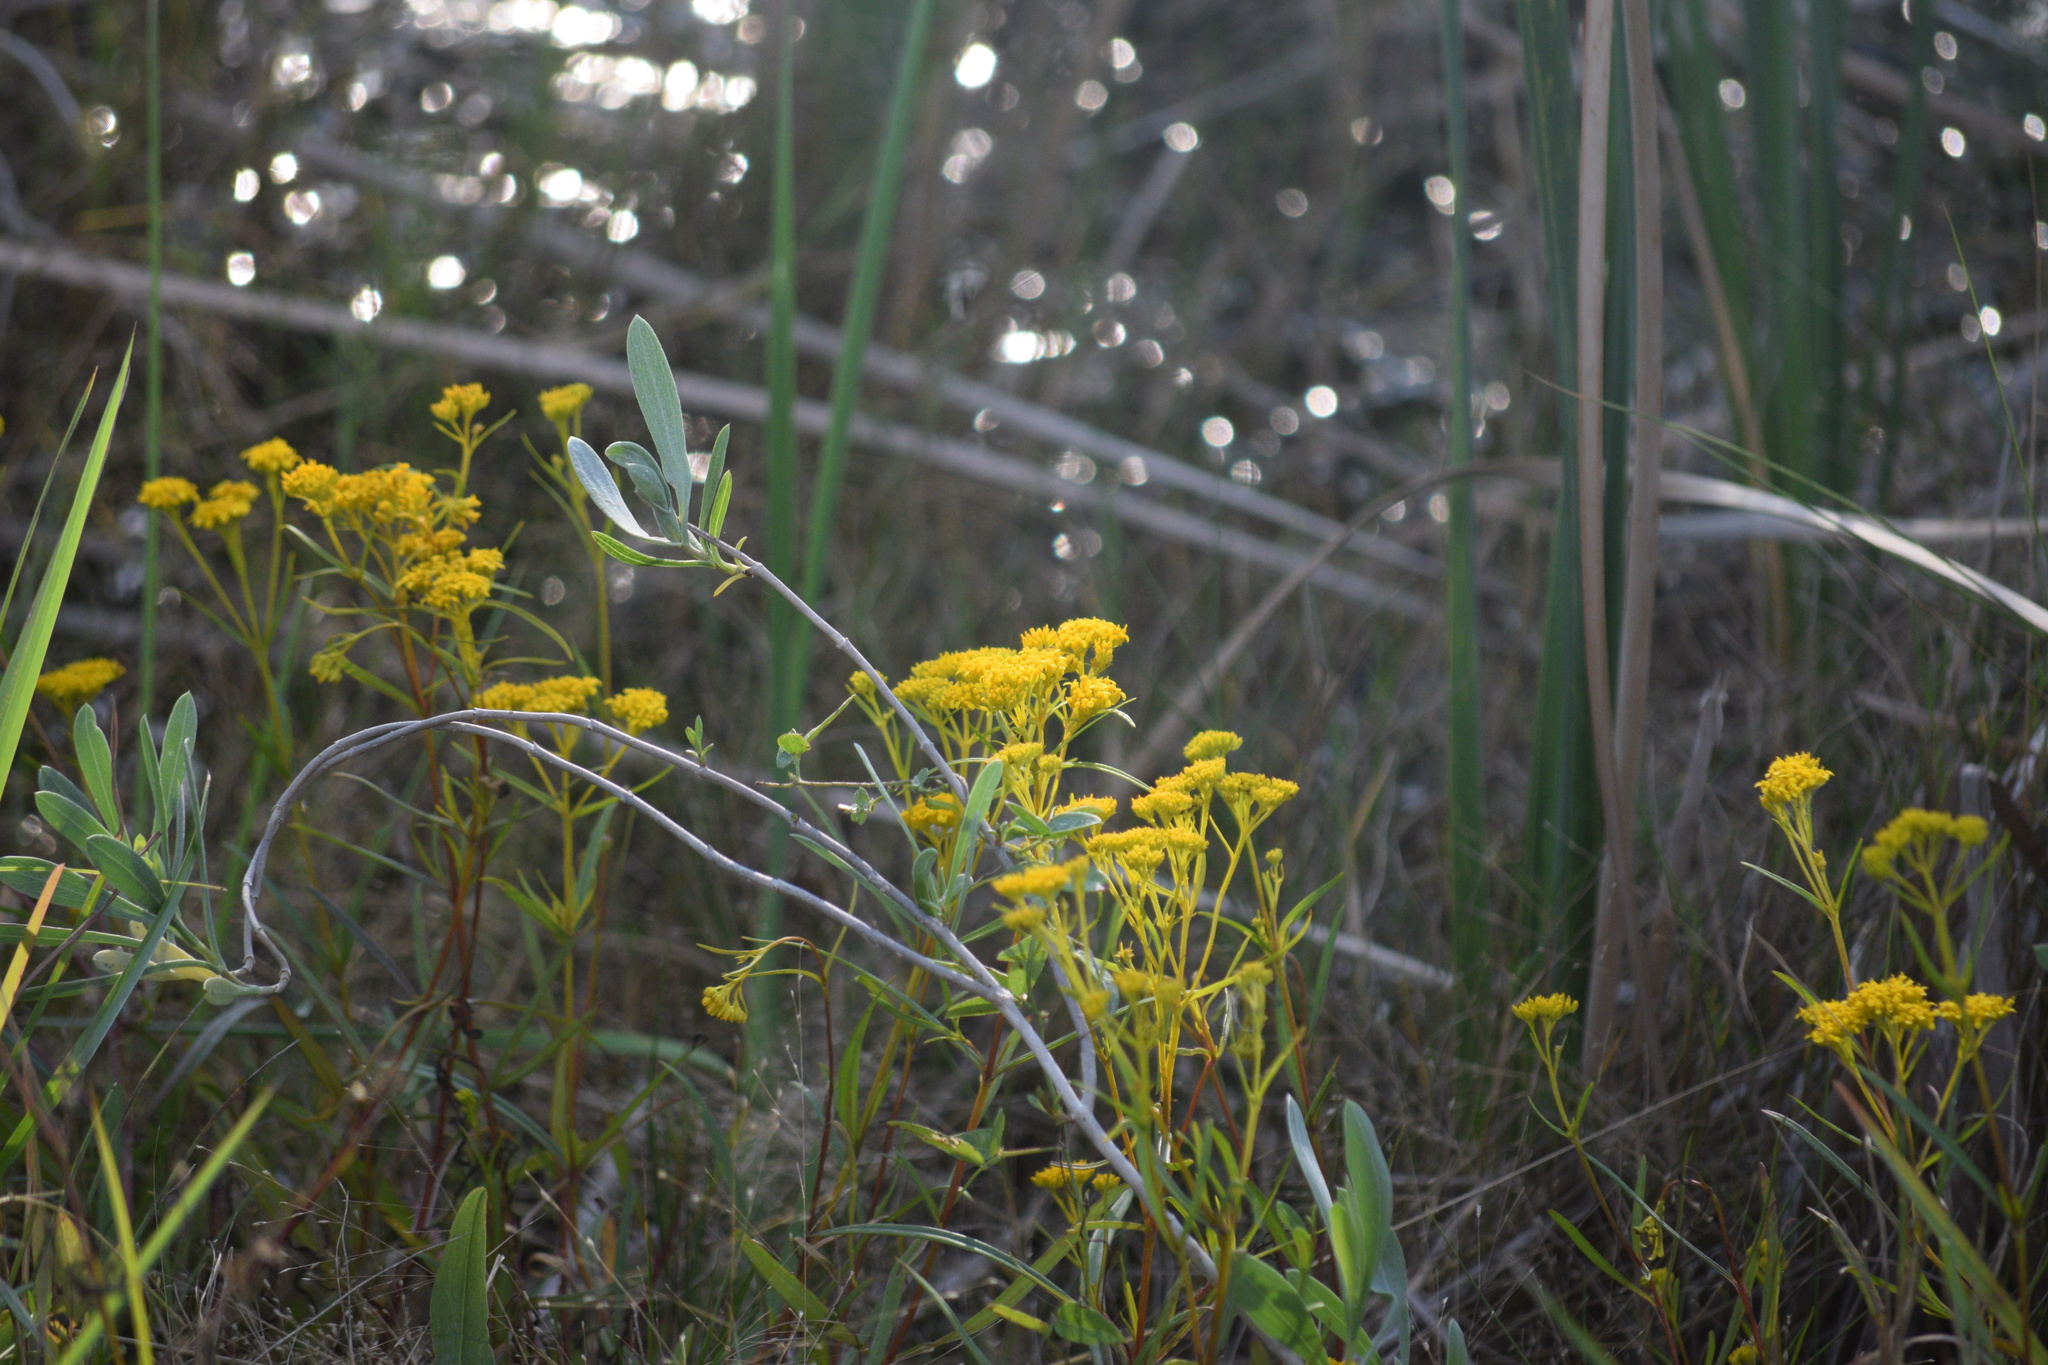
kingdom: Plantae
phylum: Tracheophyta
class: Magnoliopsida
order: Asterales
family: Asteraceae
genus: Flaveria
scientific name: Flaveria linearis
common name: Yellowtop
